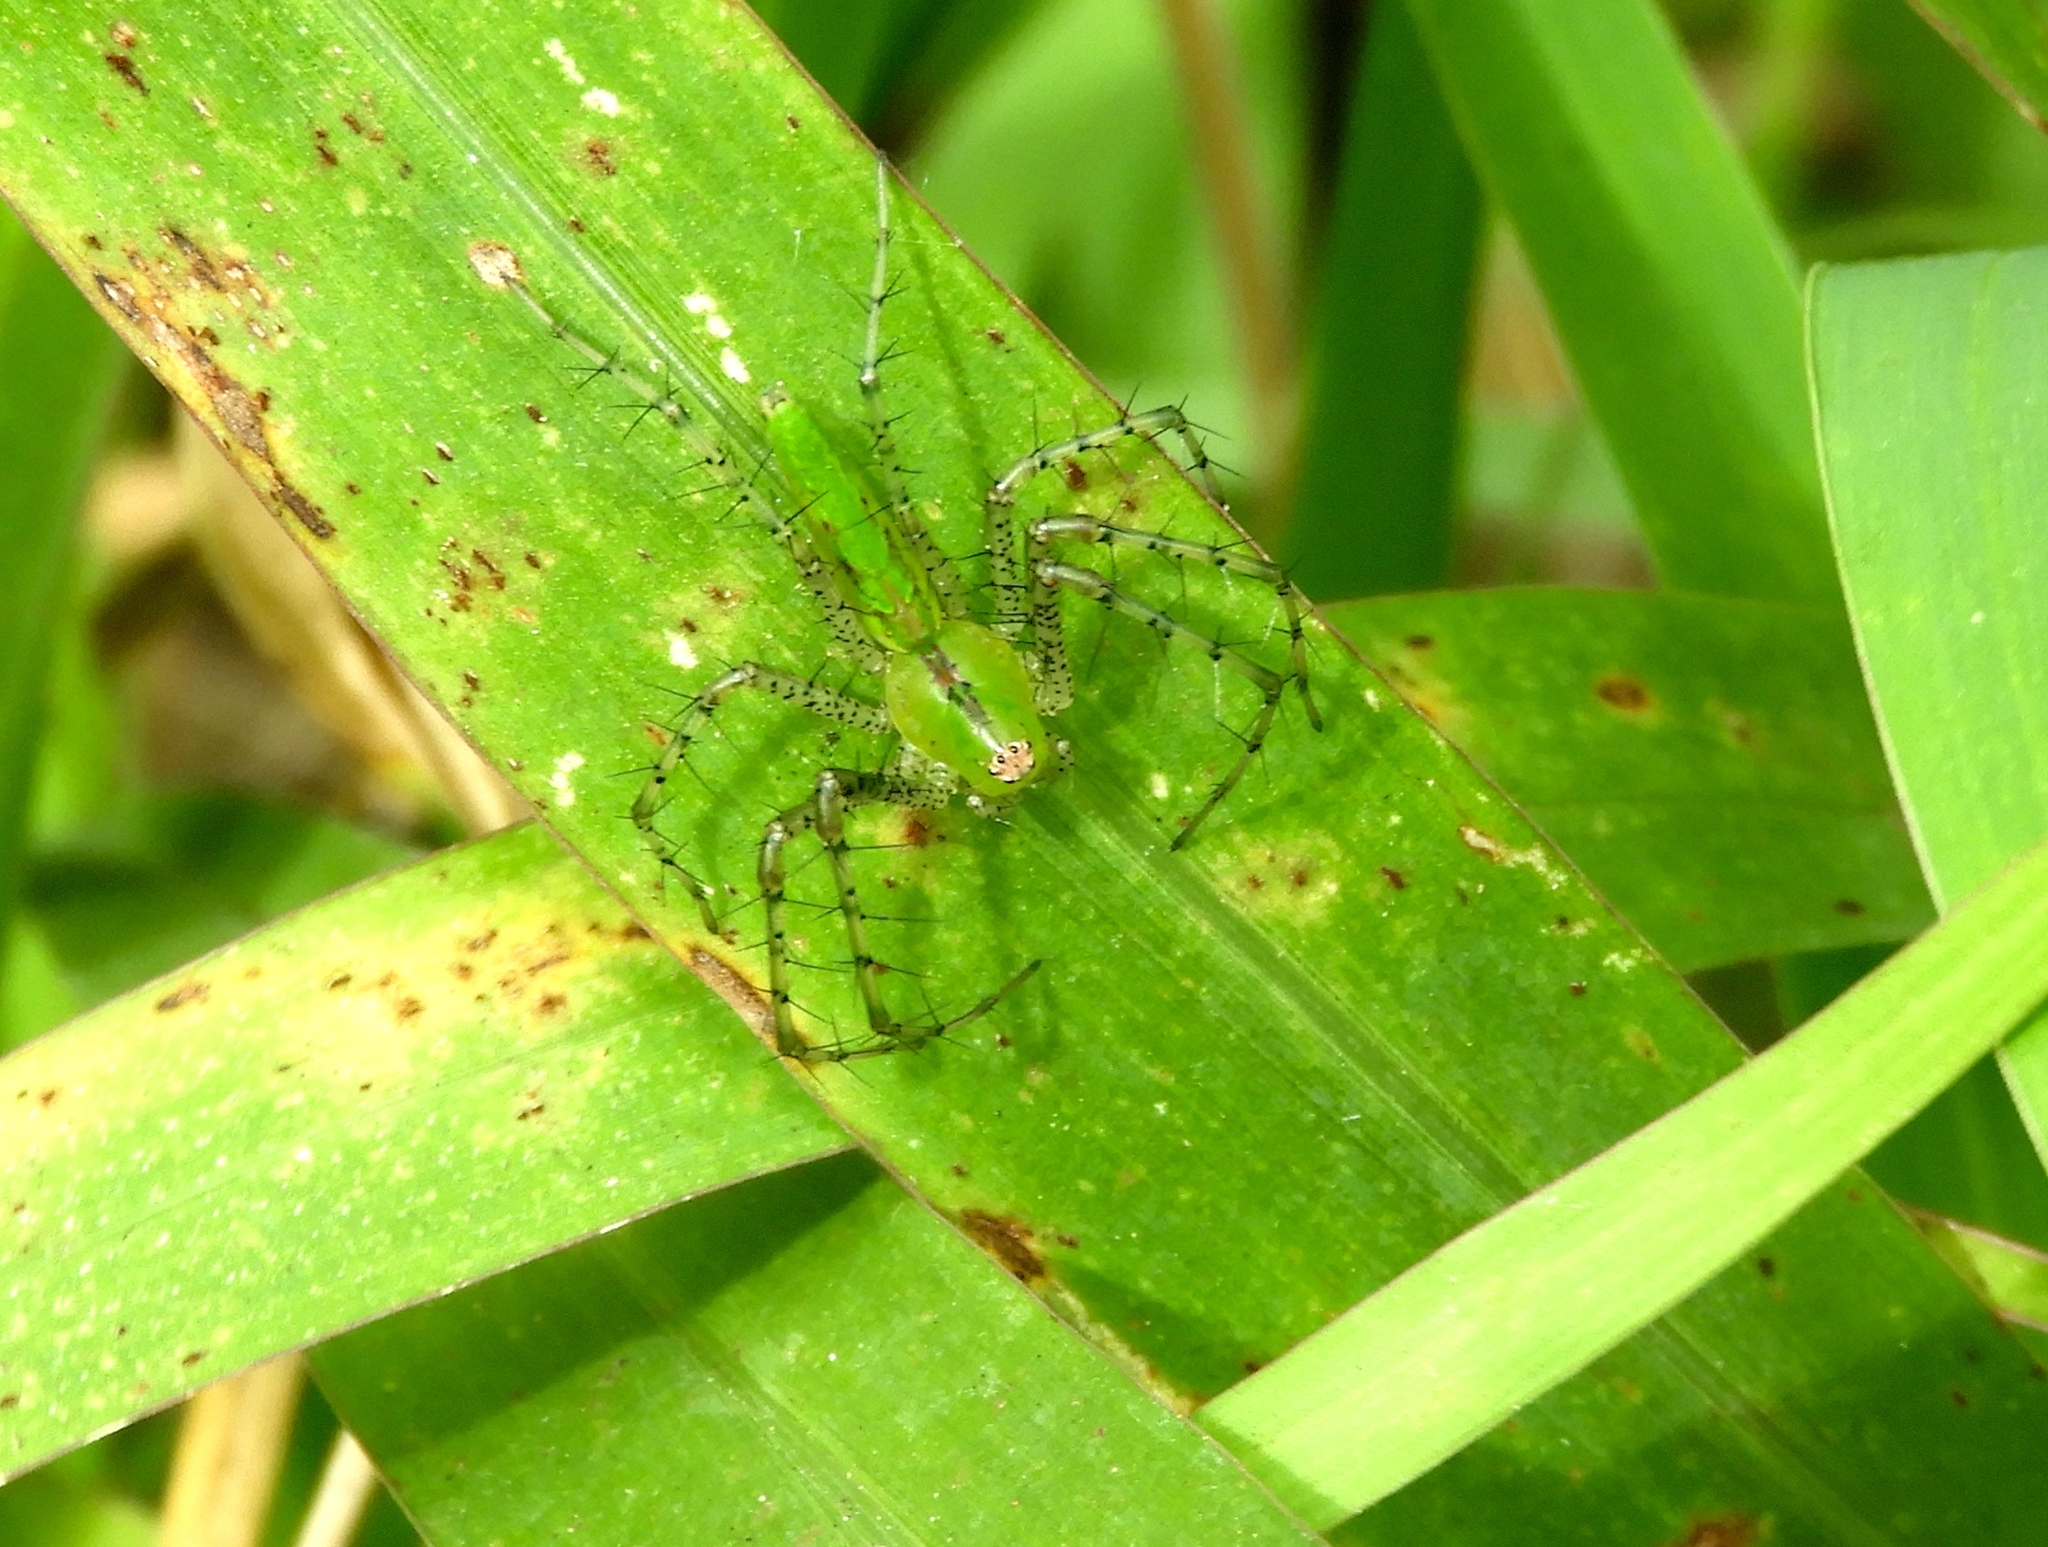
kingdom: Animalia
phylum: Arthropoda
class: Arachnida
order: Araneae
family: Oxyopidae
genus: Peucetia
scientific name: Peucetia
